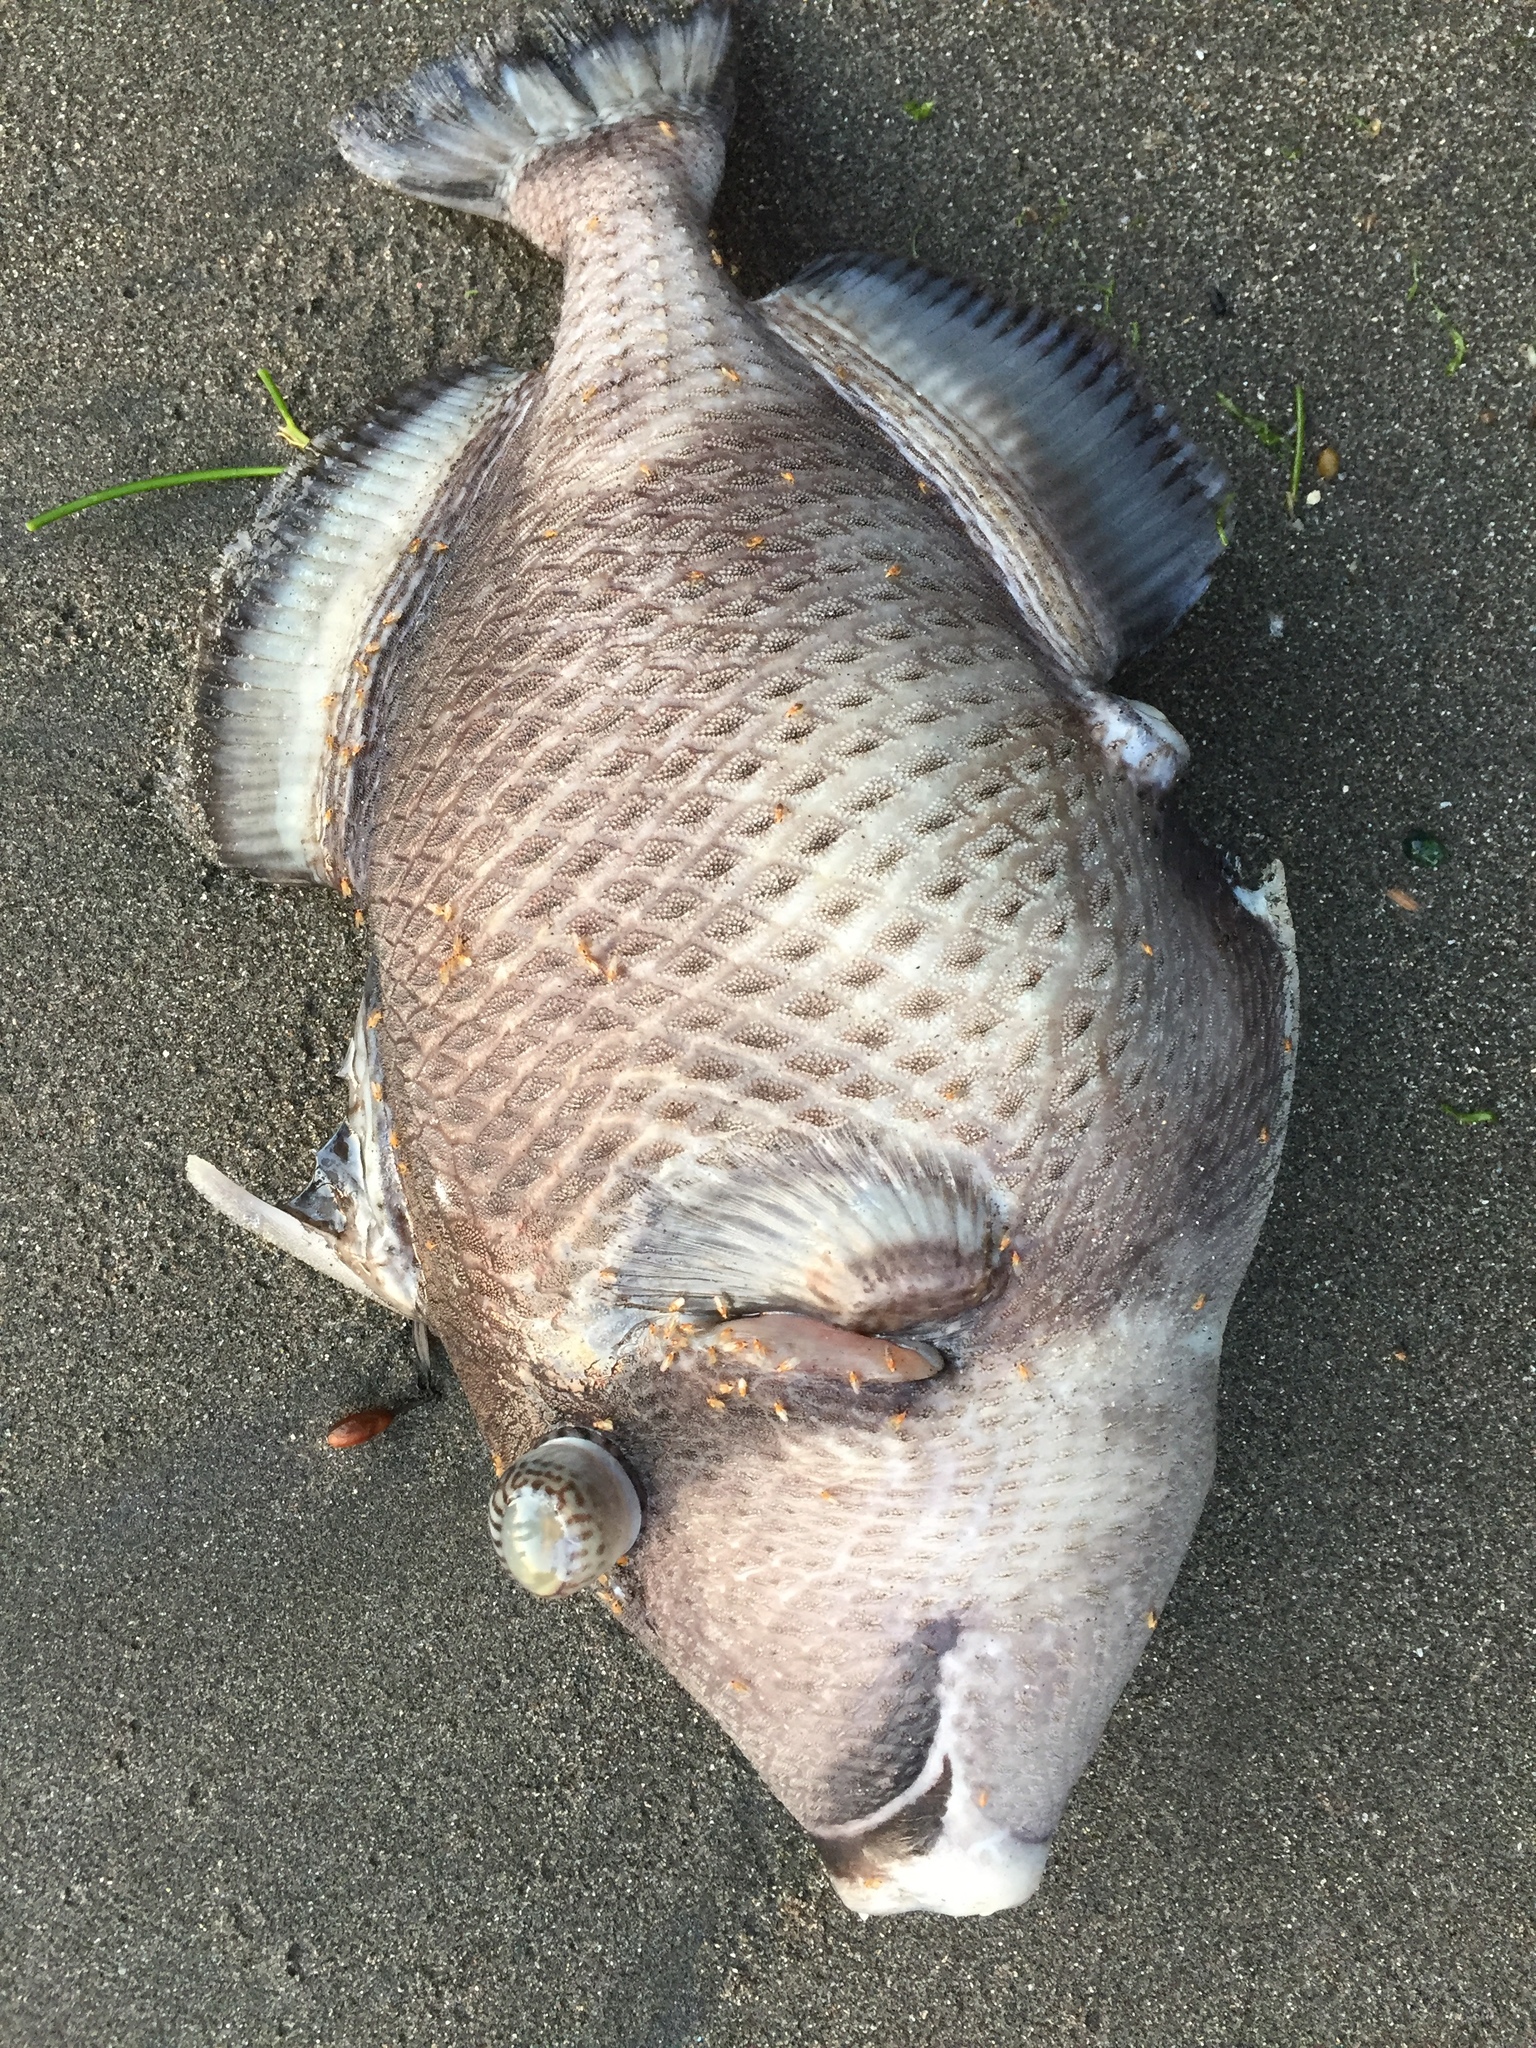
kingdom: Animalia
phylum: Chordata
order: Tetraodontiformes
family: Balistidae
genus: Balistoides
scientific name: Balistoides viridescens
